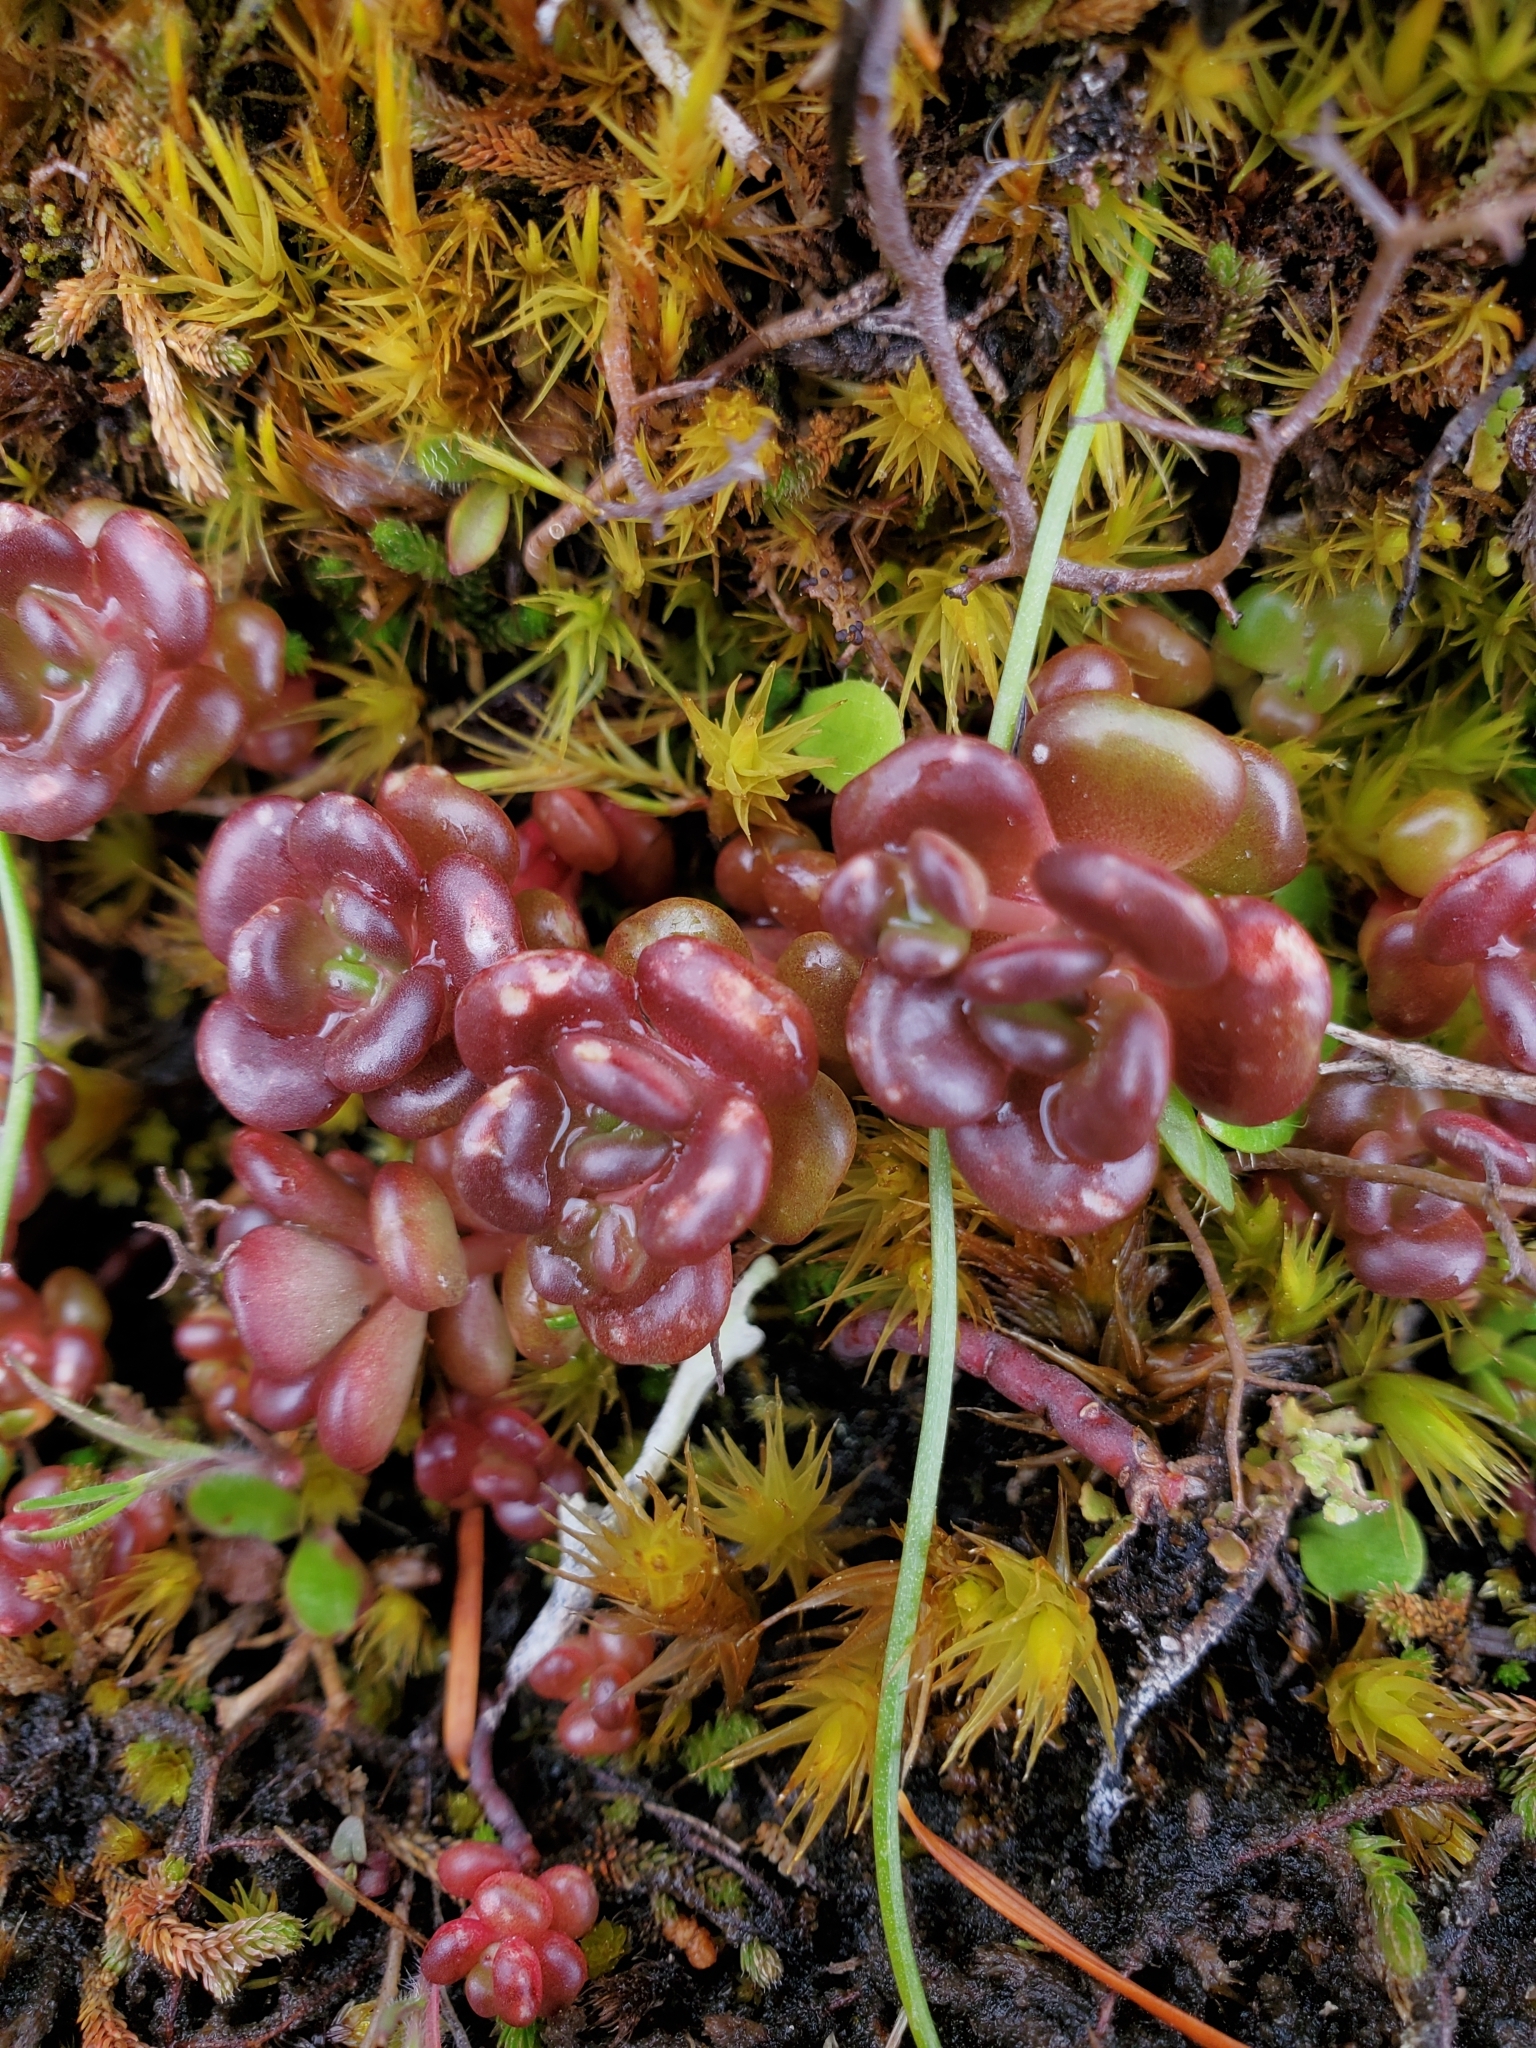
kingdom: Plantae
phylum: Tracheophyta
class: Magnoliopsida
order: Saxifragales
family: Crassulaceae
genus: Sedum
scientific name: Sedum oreganum
